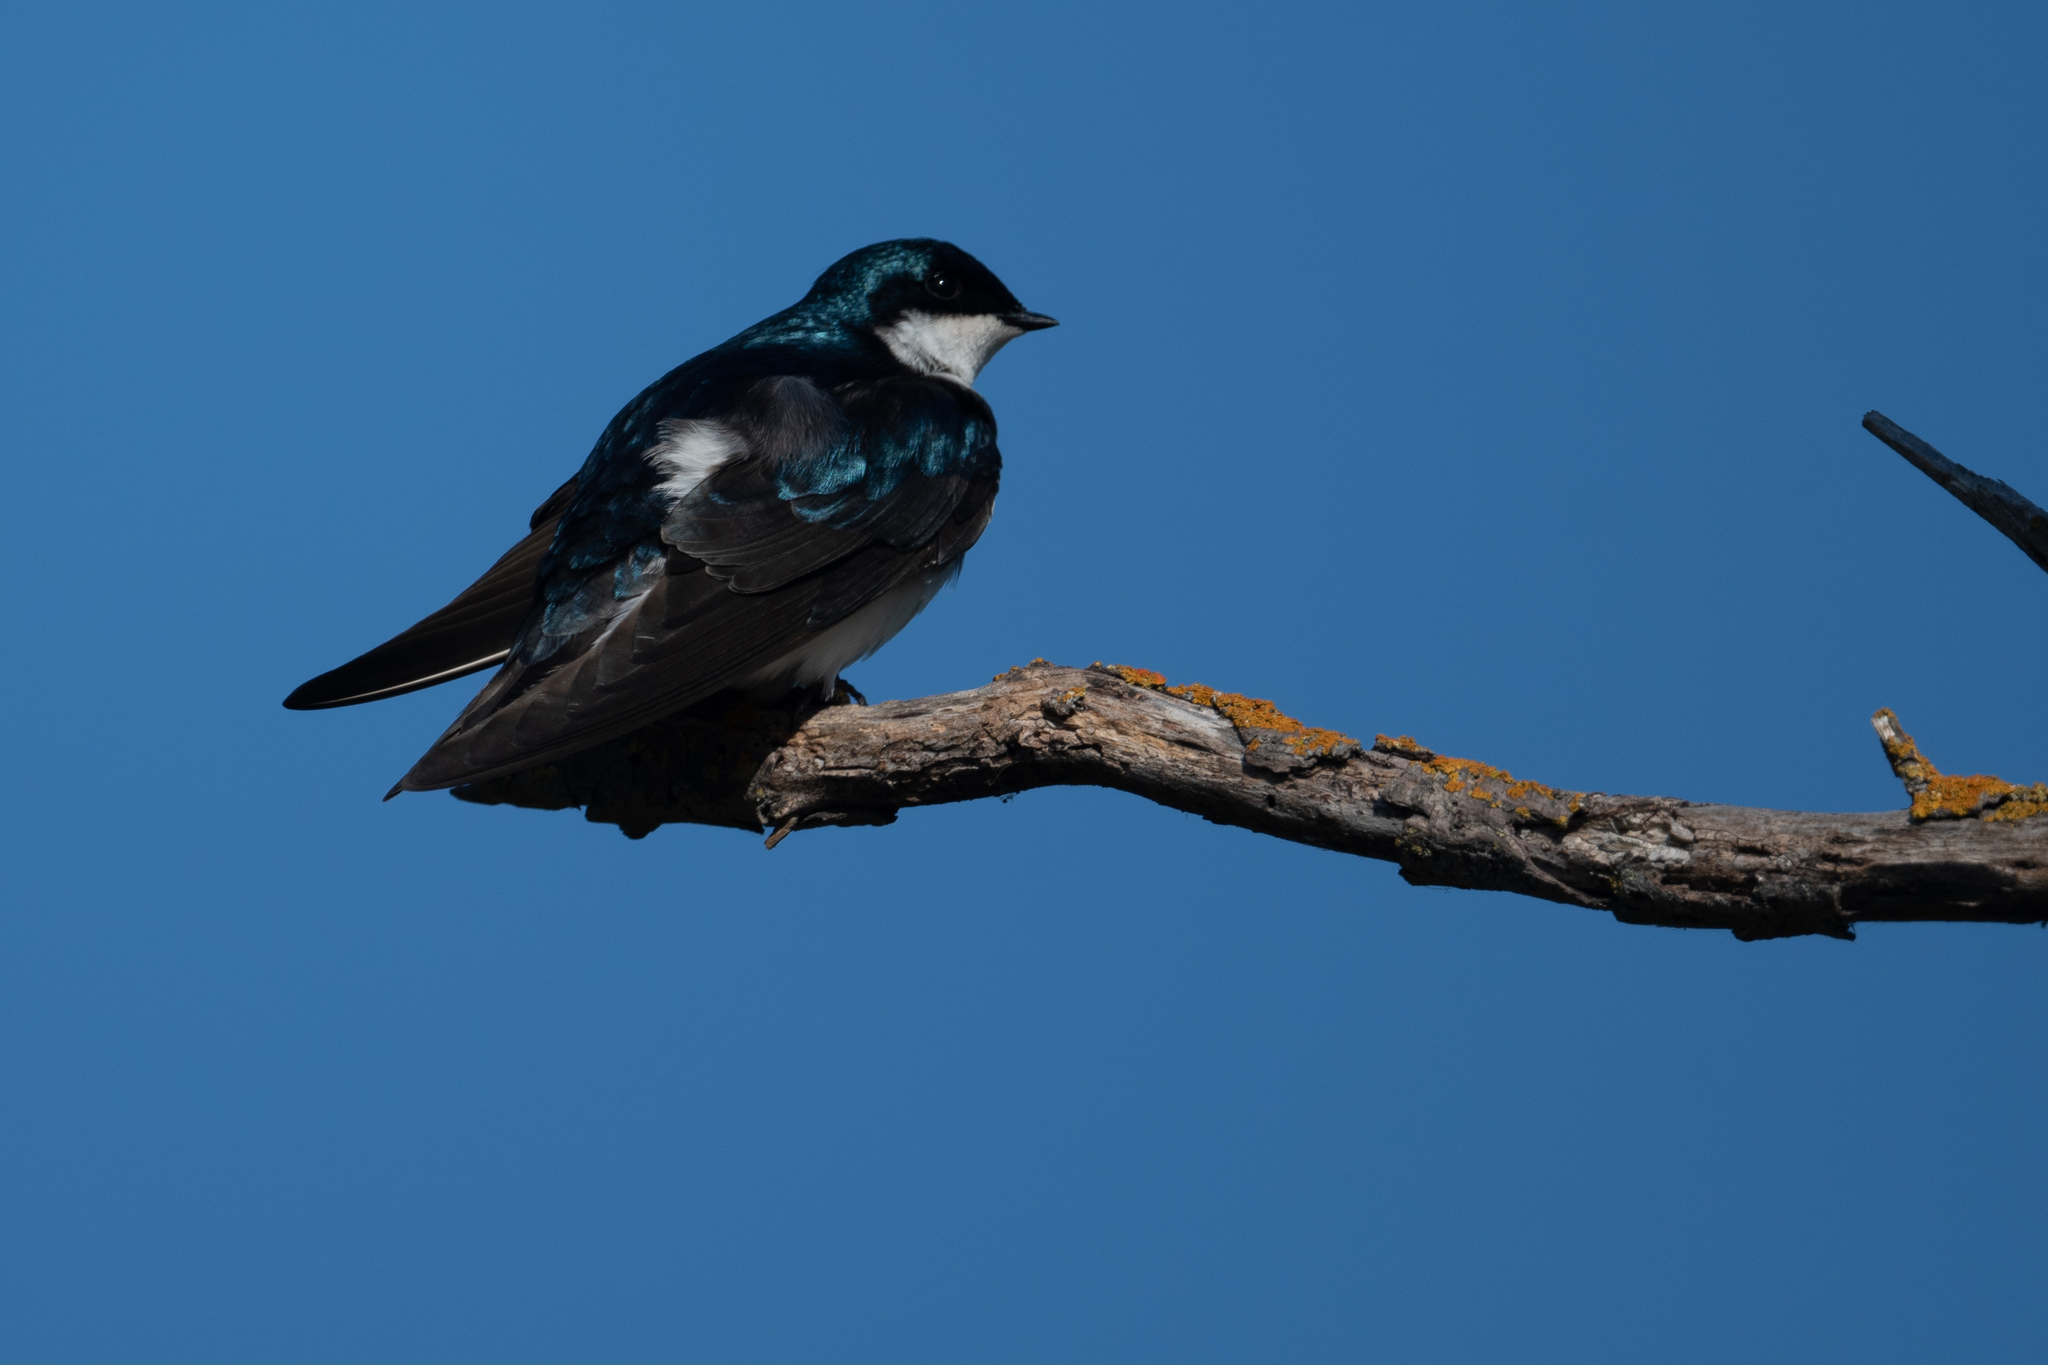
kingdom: Animalia
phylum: Chordata
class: Aves
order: Passeriformes
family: Hirundinidae
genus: Tachycineta
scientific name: Tachycineta bicolor
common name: Tree swallow
